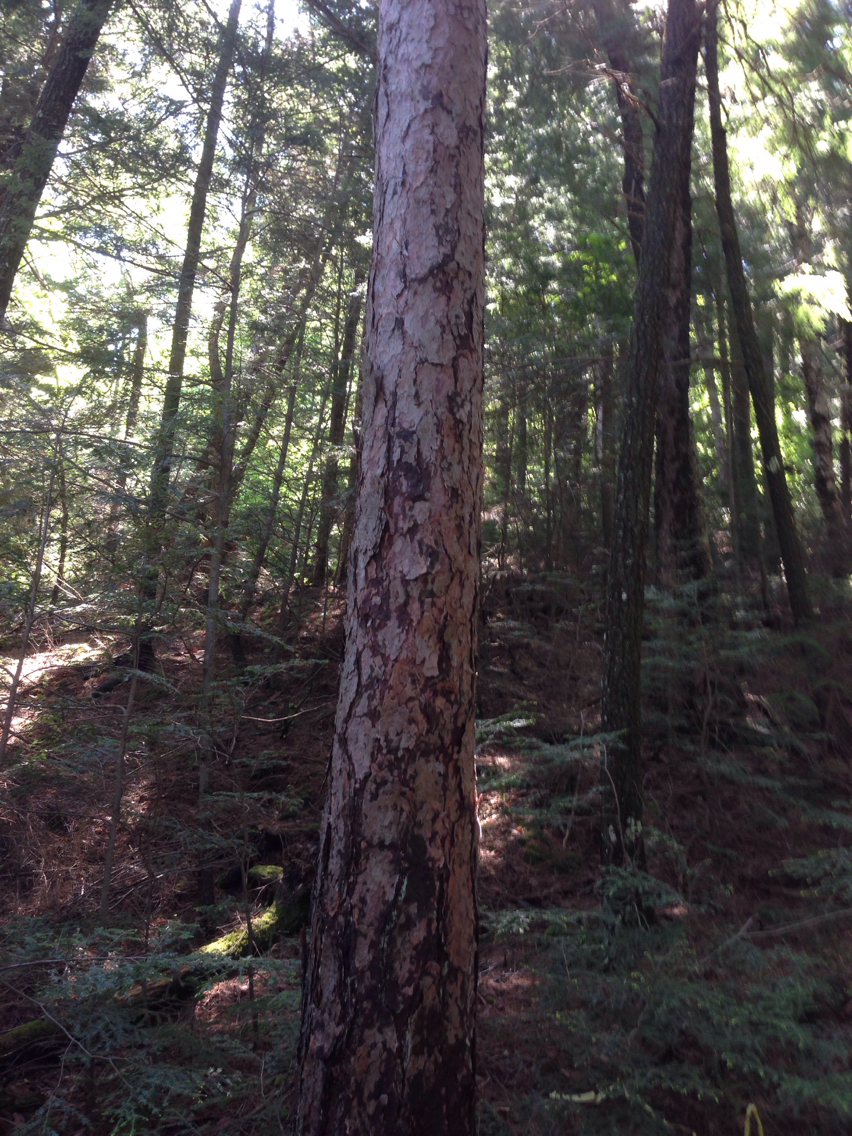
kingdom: Plantae
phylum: Tracheophyta
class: Pinopsida
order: Pinales
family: Pinaceae
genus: Pinus
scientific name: Pinus resinosa
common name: Norway pine
